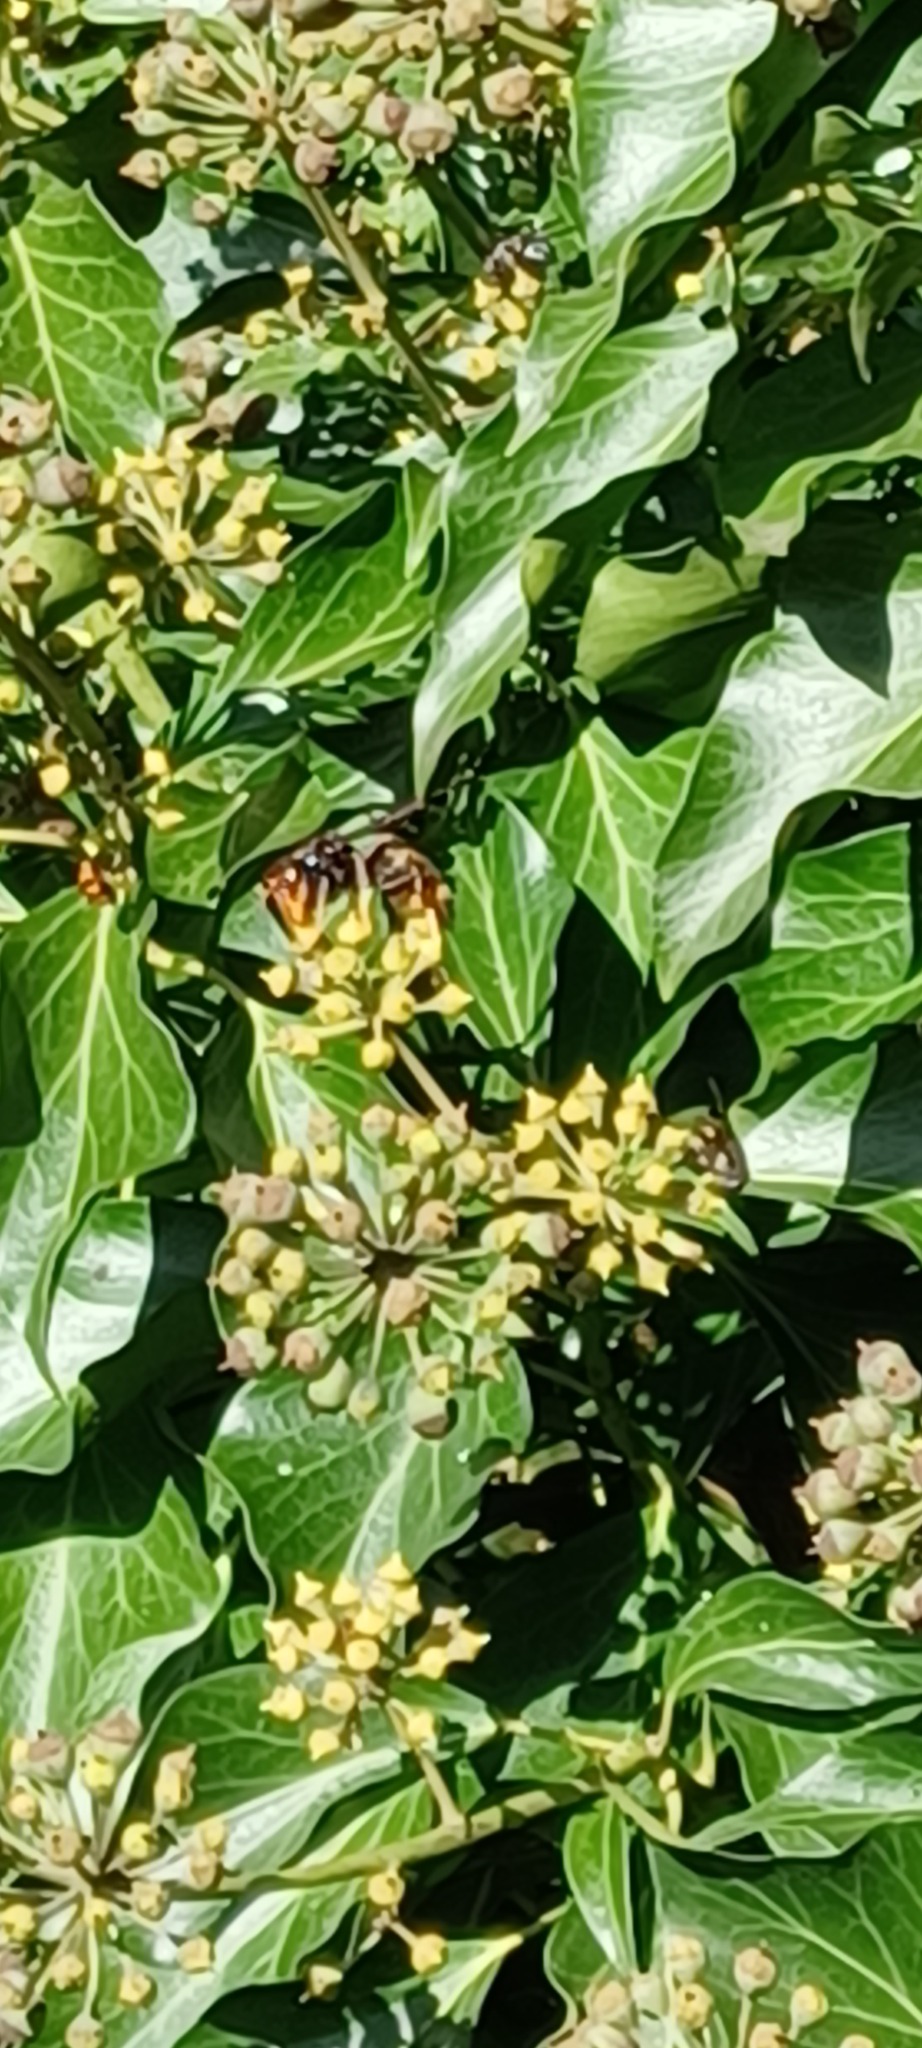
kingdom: Animalia
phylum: Arthropoda
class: Insecta
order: Hymenoptera
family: Vespidae
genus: Vespa
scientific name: Vespa velutina
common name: Asian hornet
